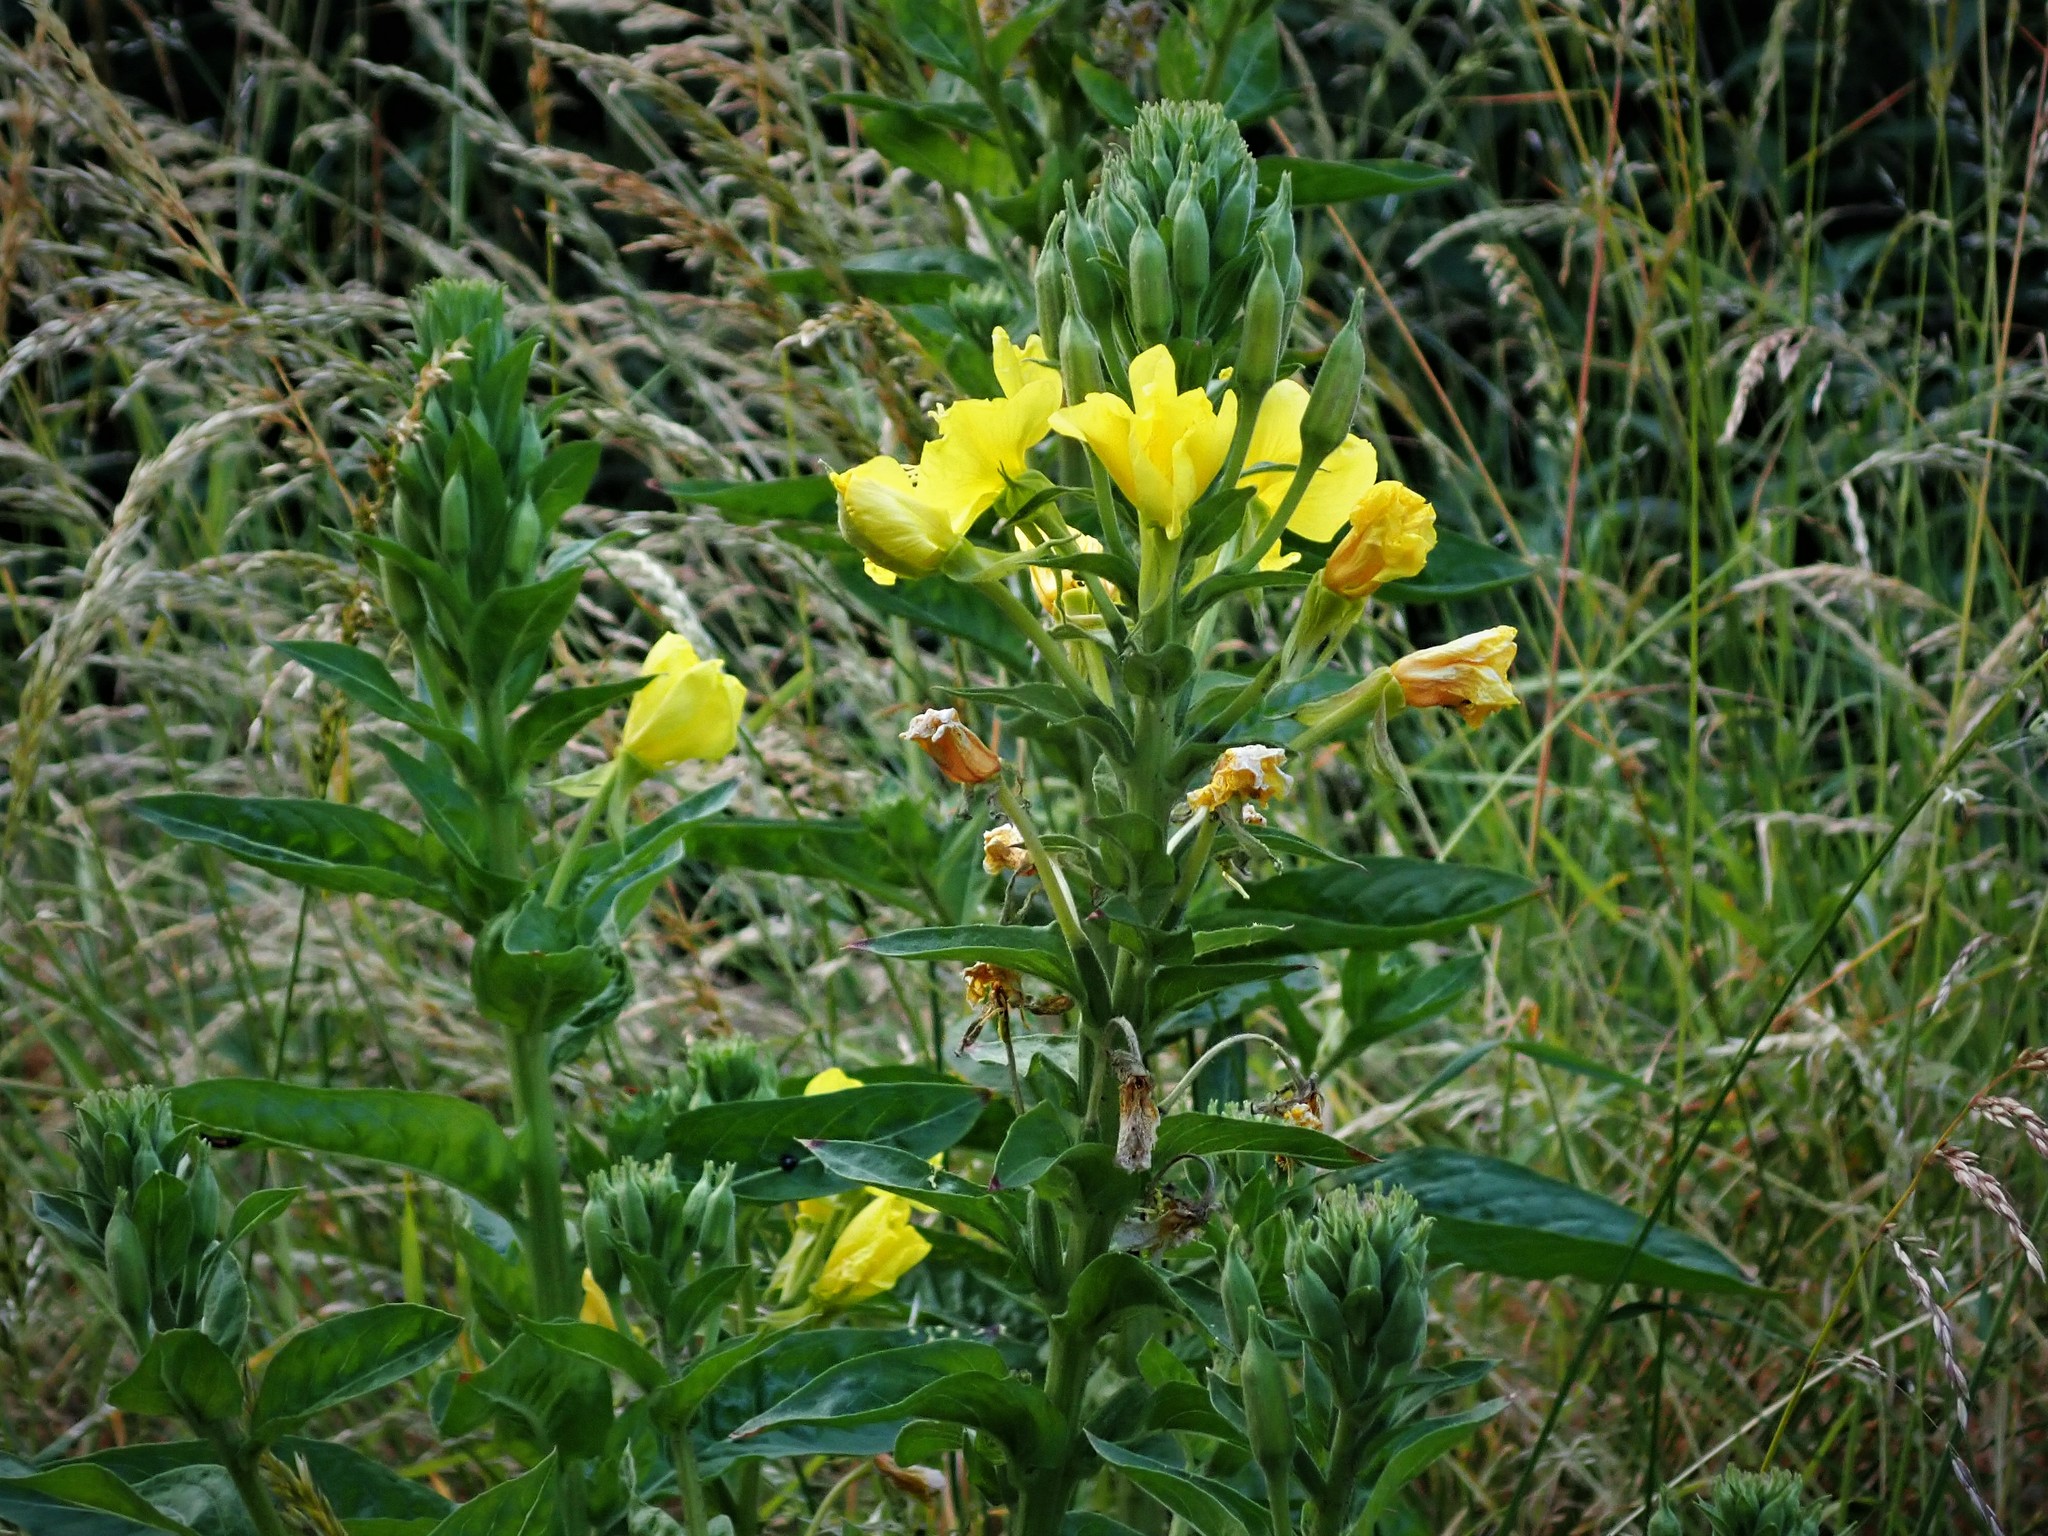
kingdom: Plantae
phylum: Tracheophyta
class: Magnoliopsida
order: Myrtales
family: Onagraceae
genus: Oenothera
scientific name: Oenothera biennis
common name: Common evening-primrose
